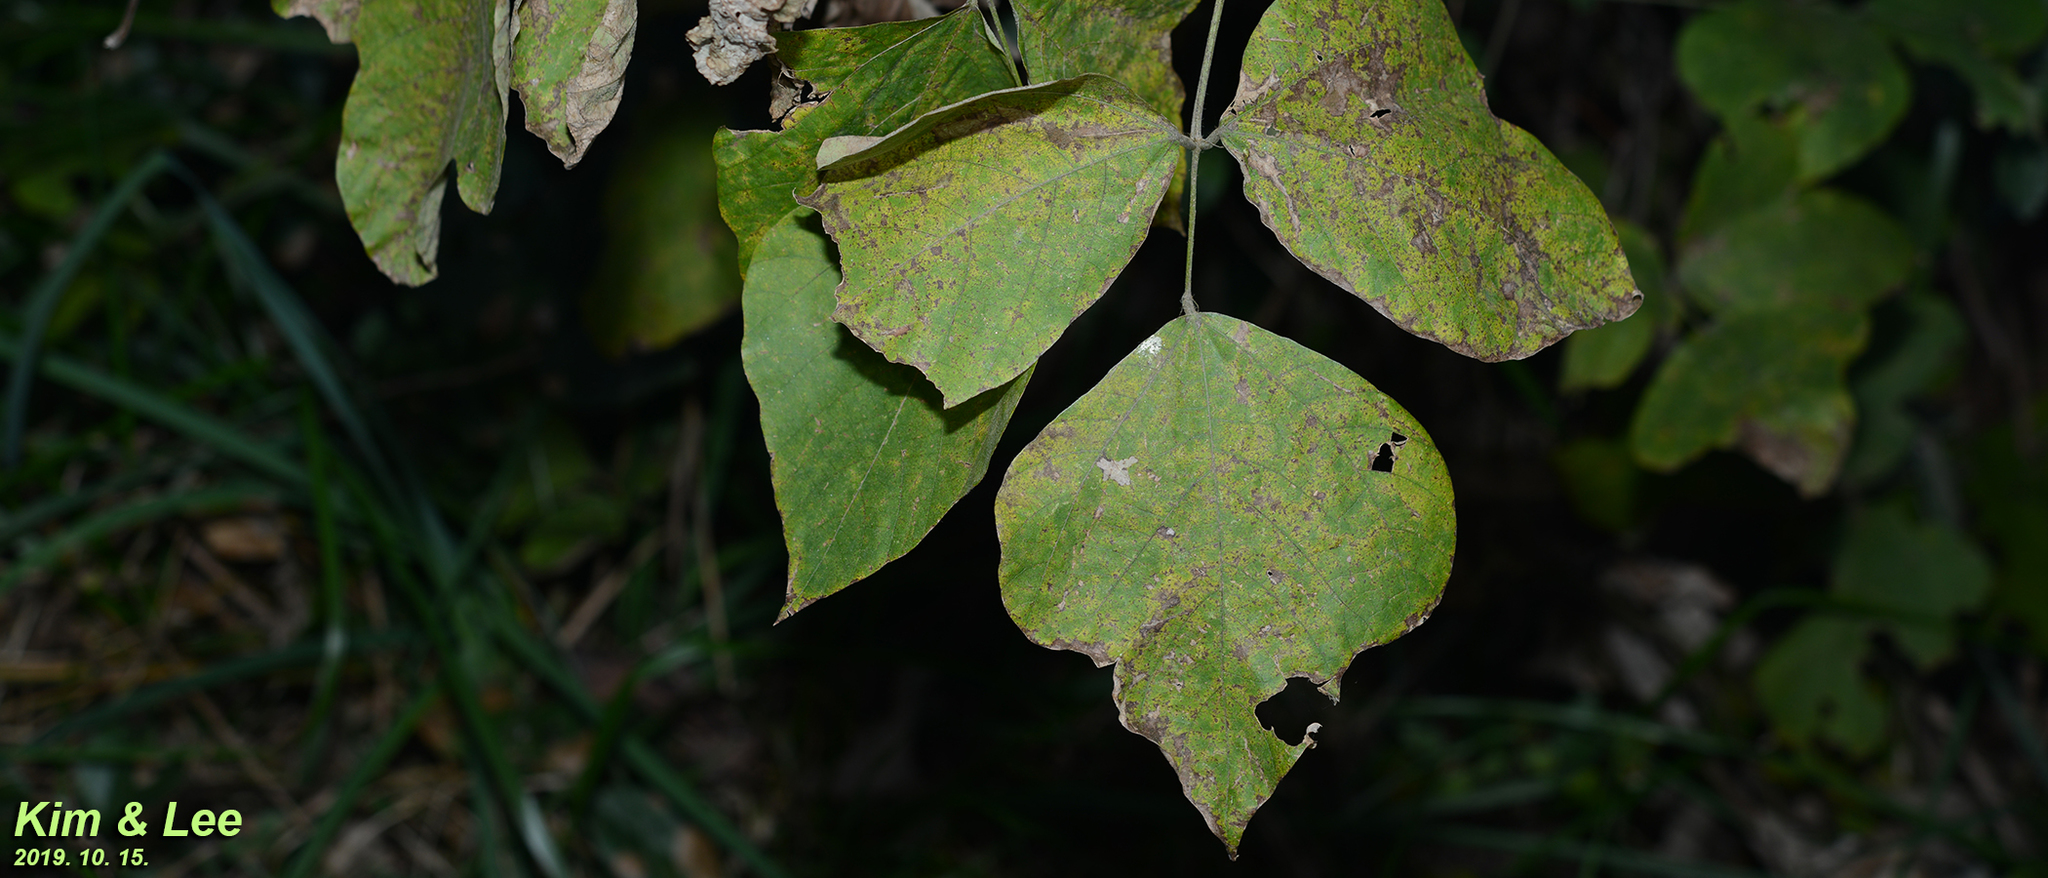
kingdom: Plantae
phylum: Tracheophyta
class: Magnoliopsida
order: Fabales
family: Fabaceae
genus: Pueraria
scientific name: Pueraria montana
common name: Kudzu
